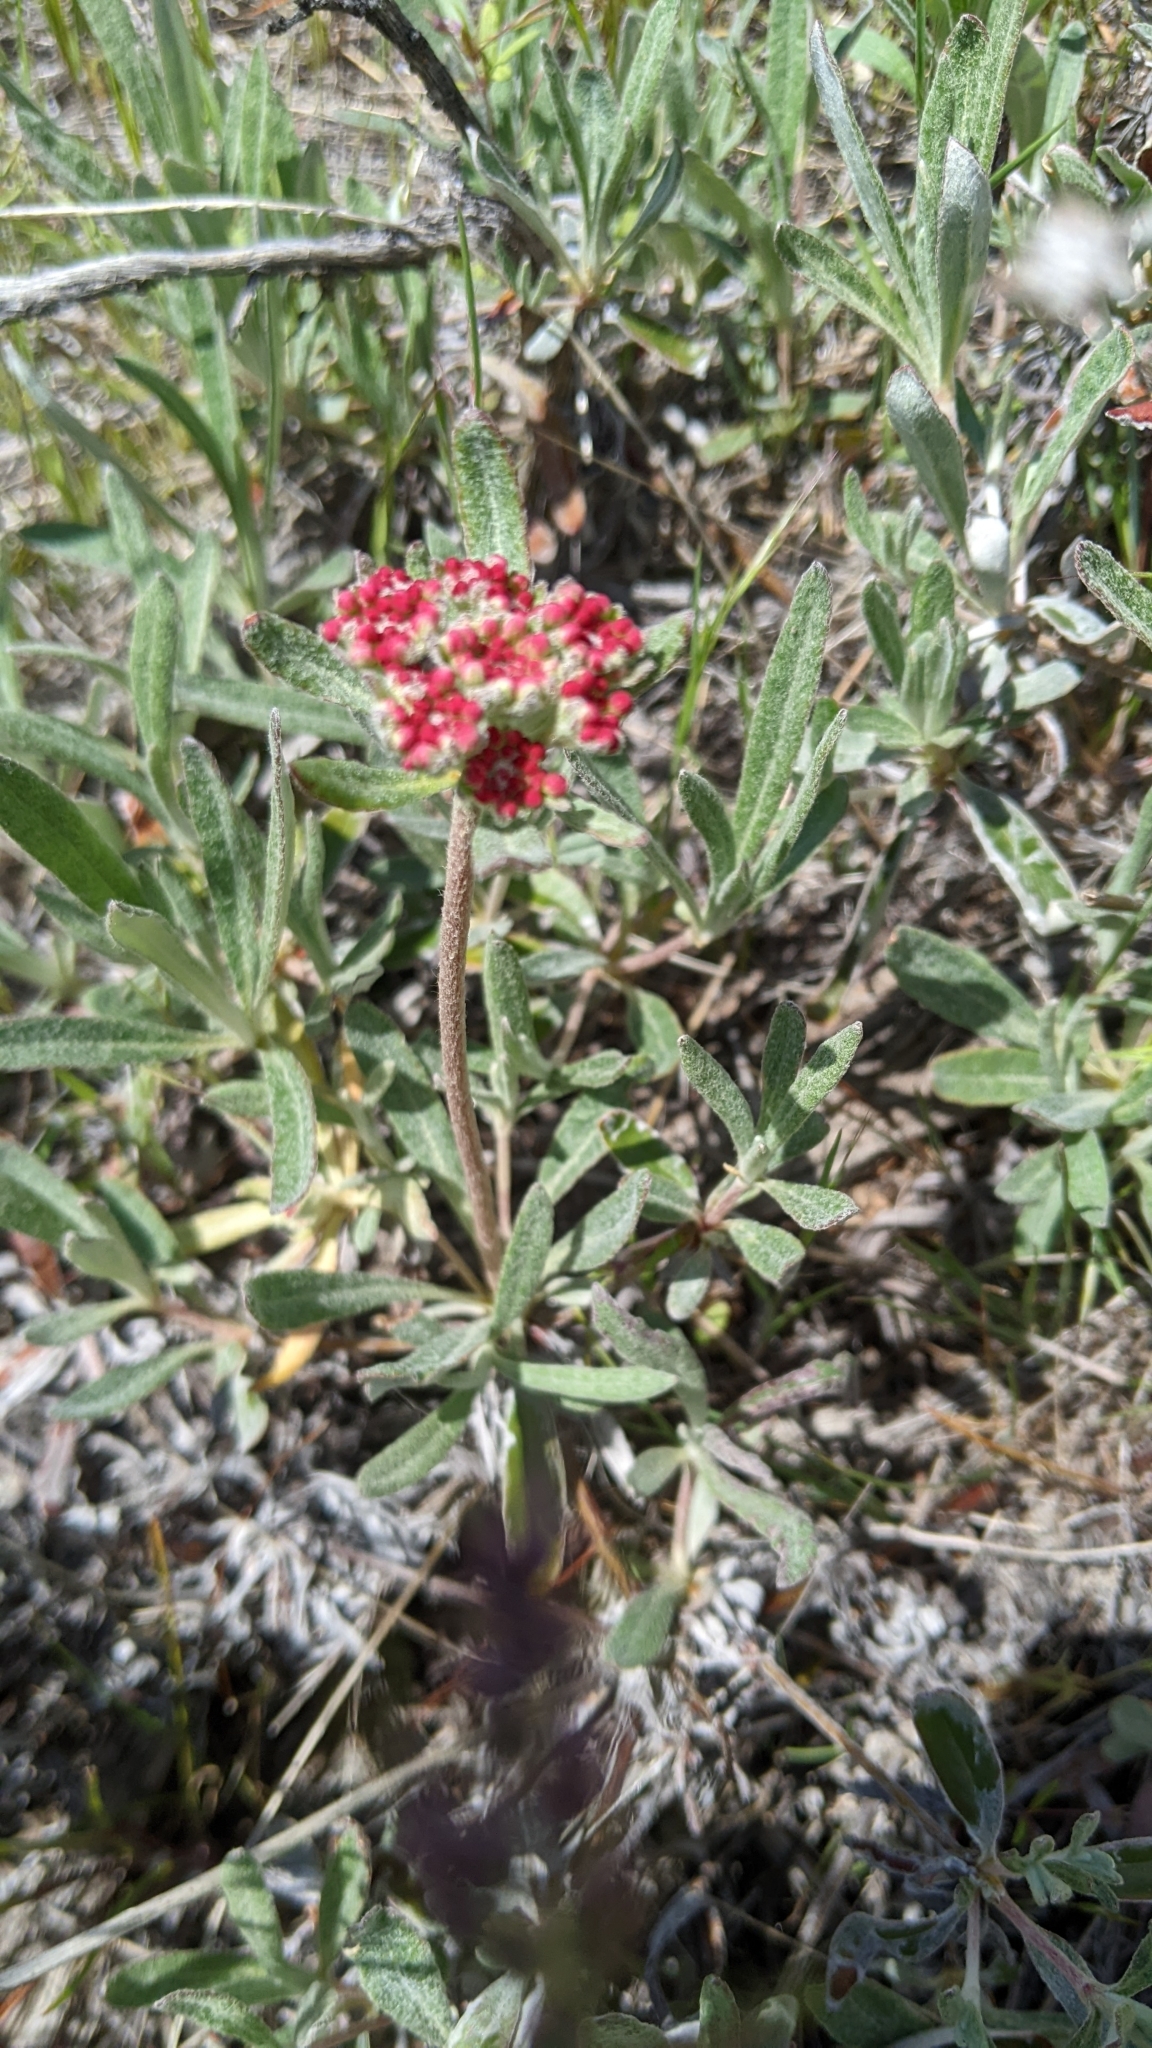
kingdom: Plantae
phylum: Tracheophyta
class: Magnoliopsida
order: Caryophyllales
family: Polygonaceae
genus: Eriogonum
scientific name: Eriogonum heracleoides
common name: Wyeth's buckwheat
